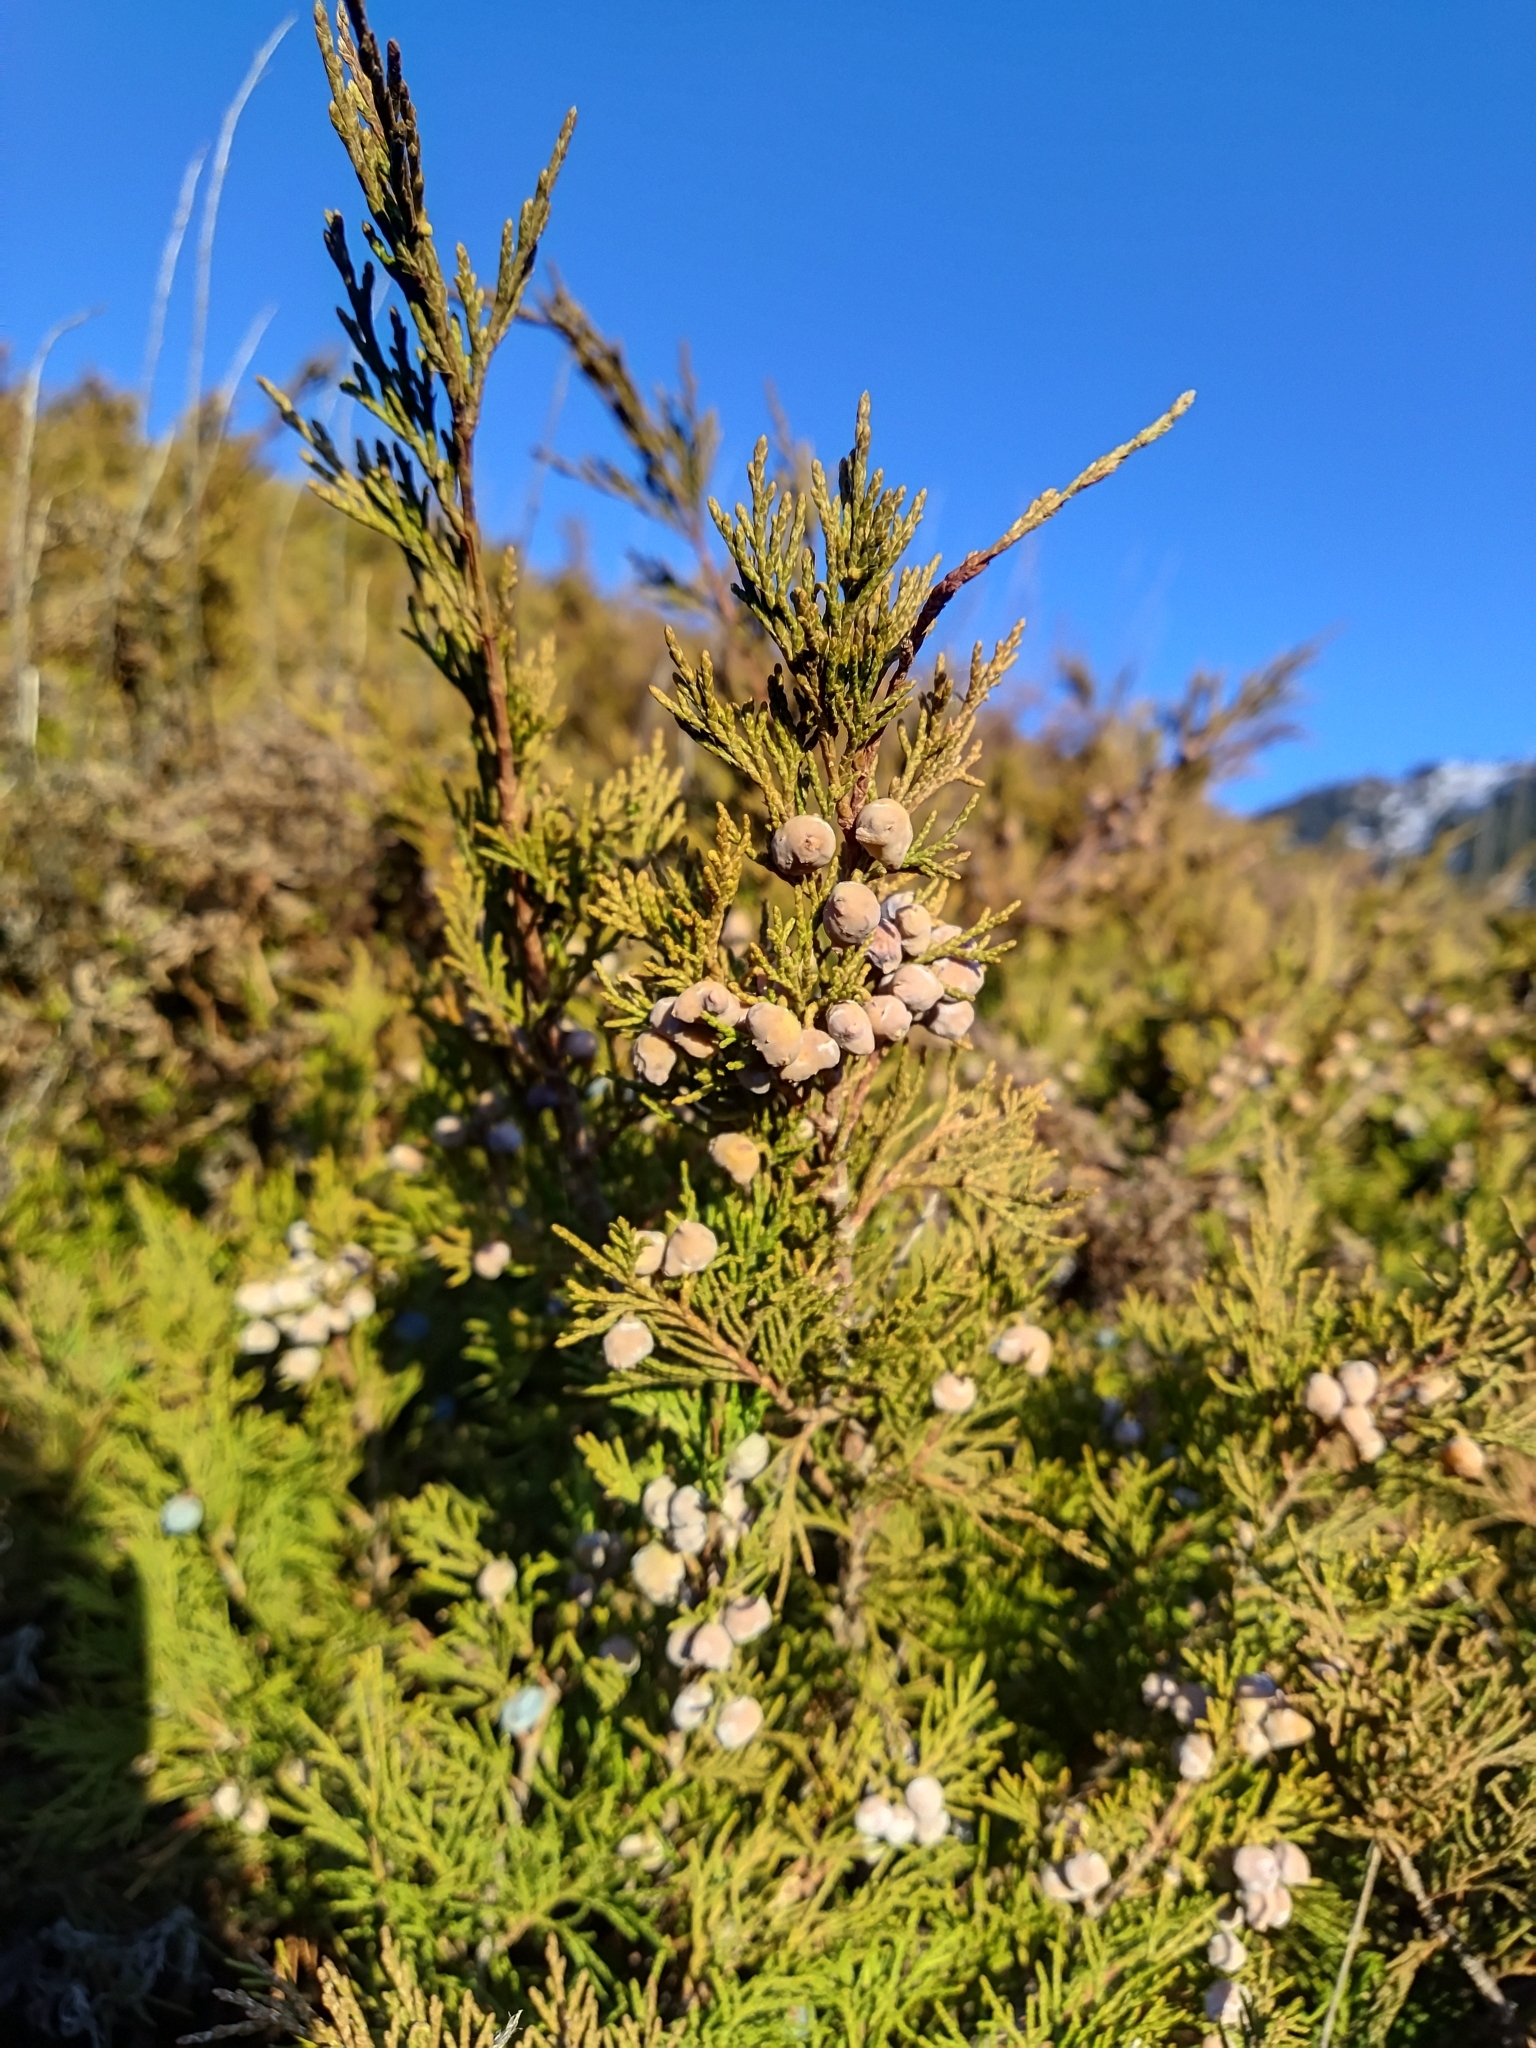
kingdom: Plantae
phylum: Tracheophyta
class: Pinopsida
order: Pinales
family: Cupressaceae
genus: Juniperus
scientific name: Juniperus sabina
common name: Savin
